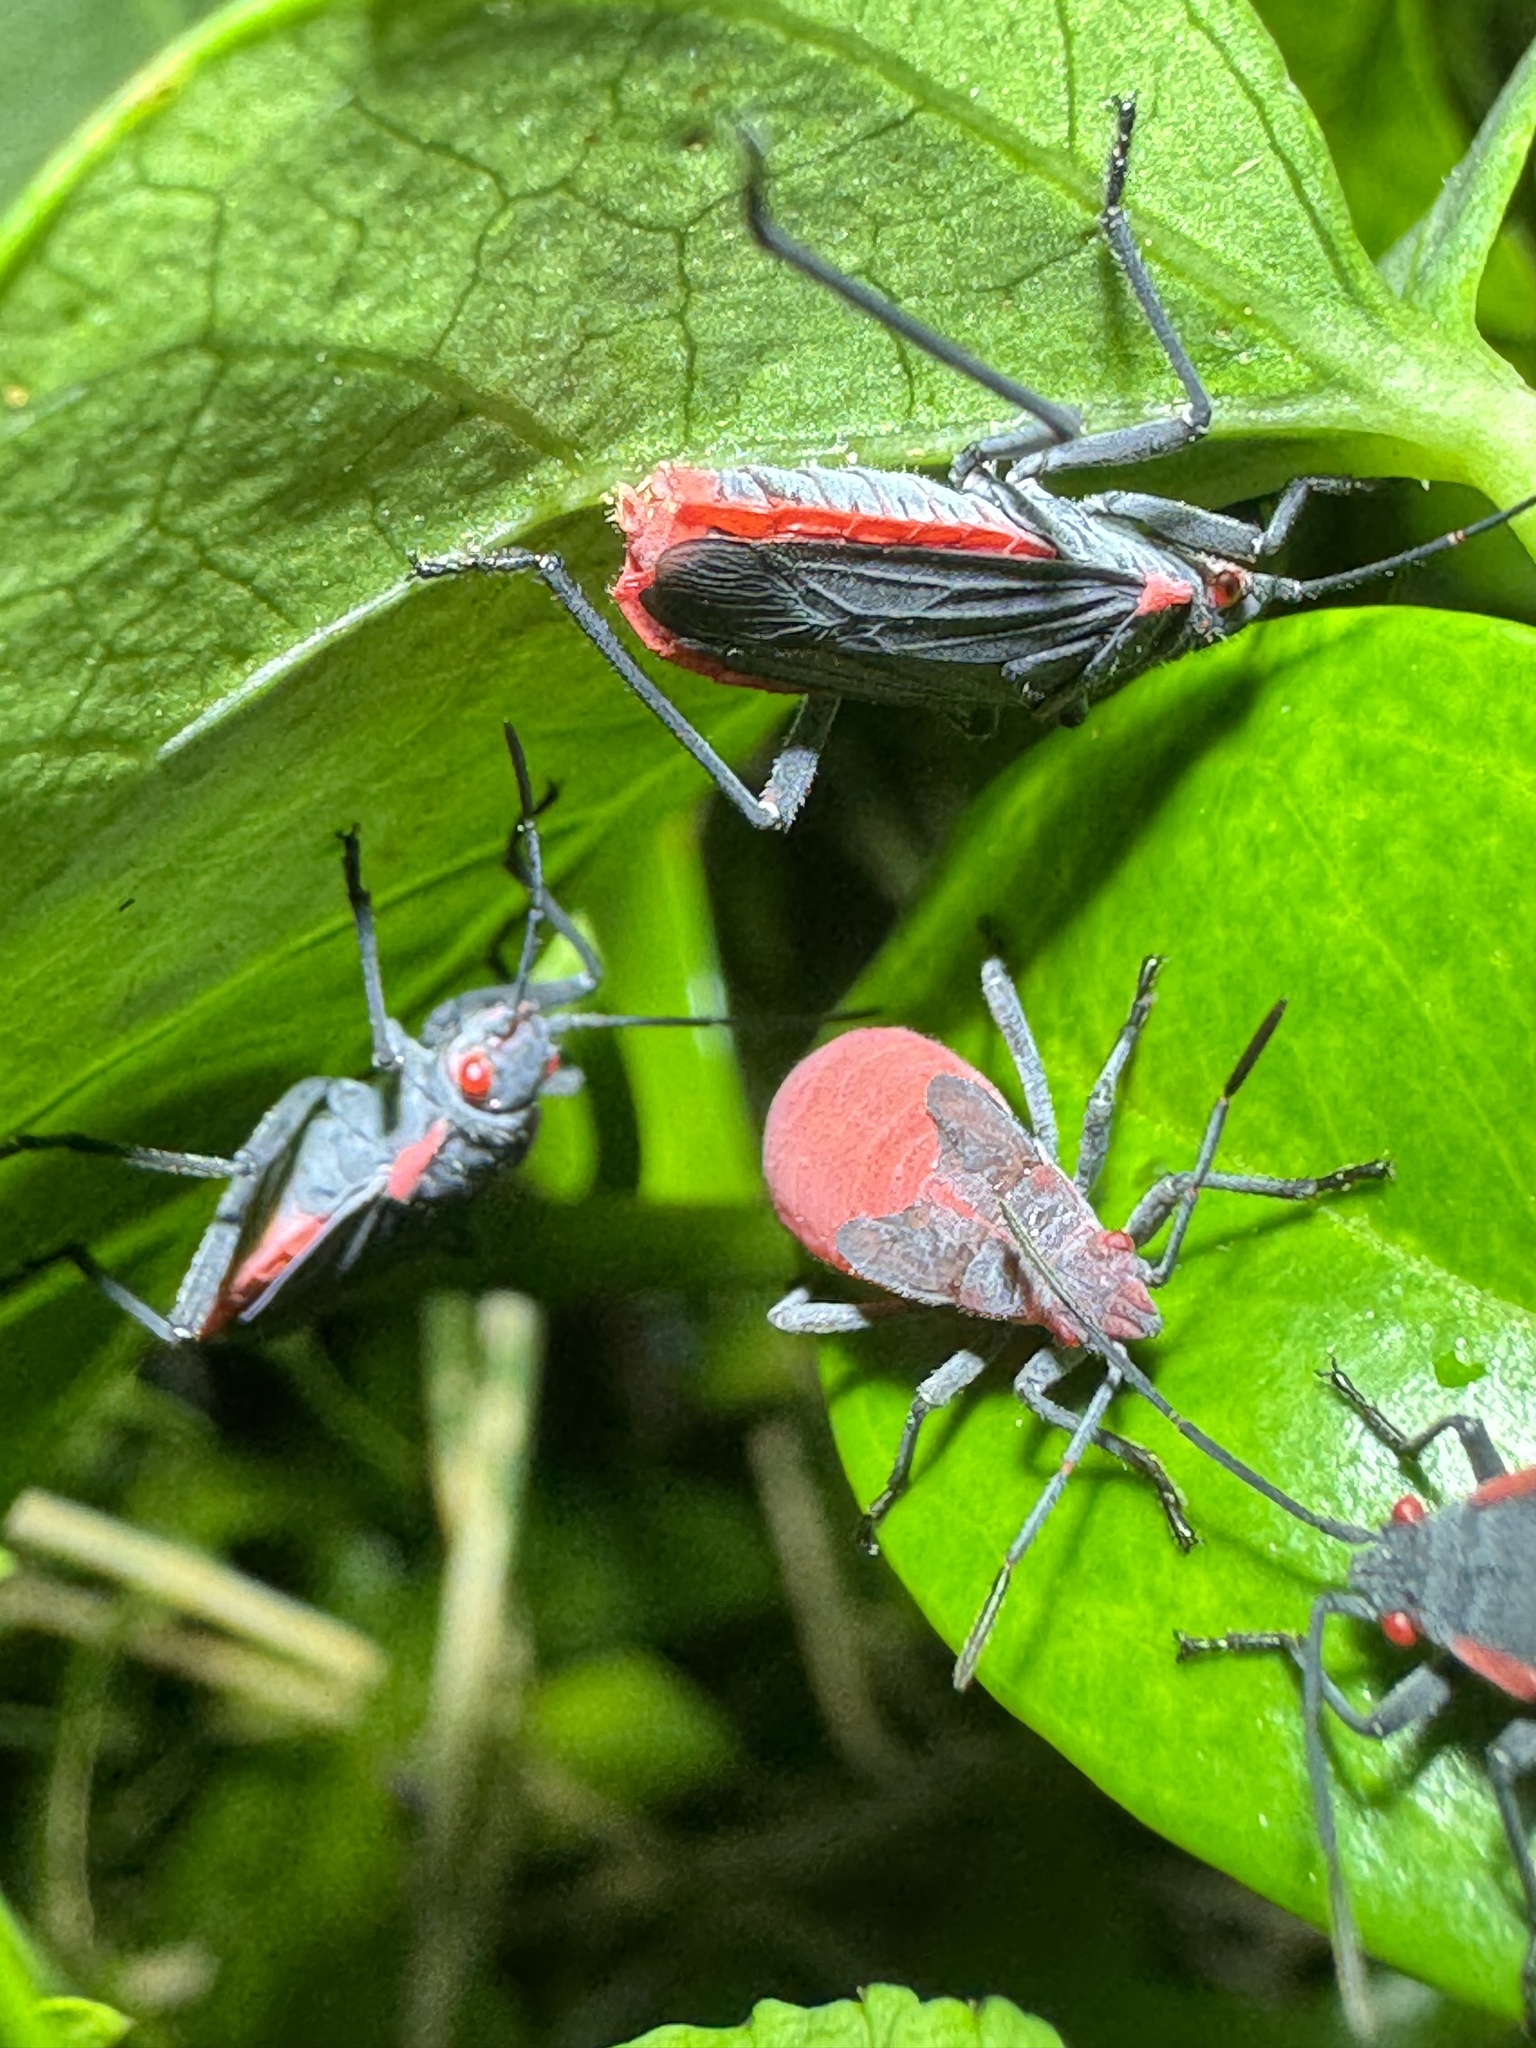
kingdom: Animalia
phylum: Arthropoda
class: Insecta
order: Hemiptera
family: Rhopalidae
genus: Jadera
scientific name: Jadera haematoloma
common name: Red-shouldered bug
